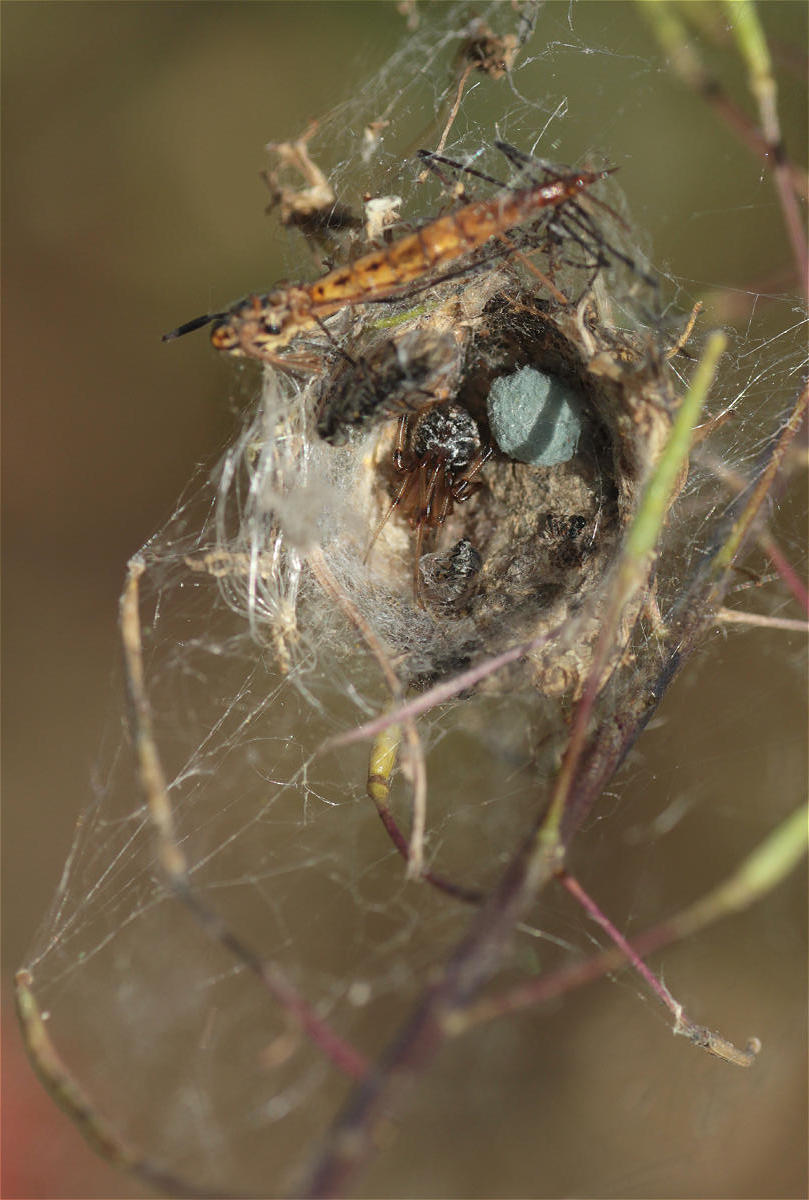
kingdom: Animalia
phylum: Arthropoda
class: Arachnida
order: Araneae
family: Theridiidae
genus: Phylloneta
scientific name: Phylloneta
